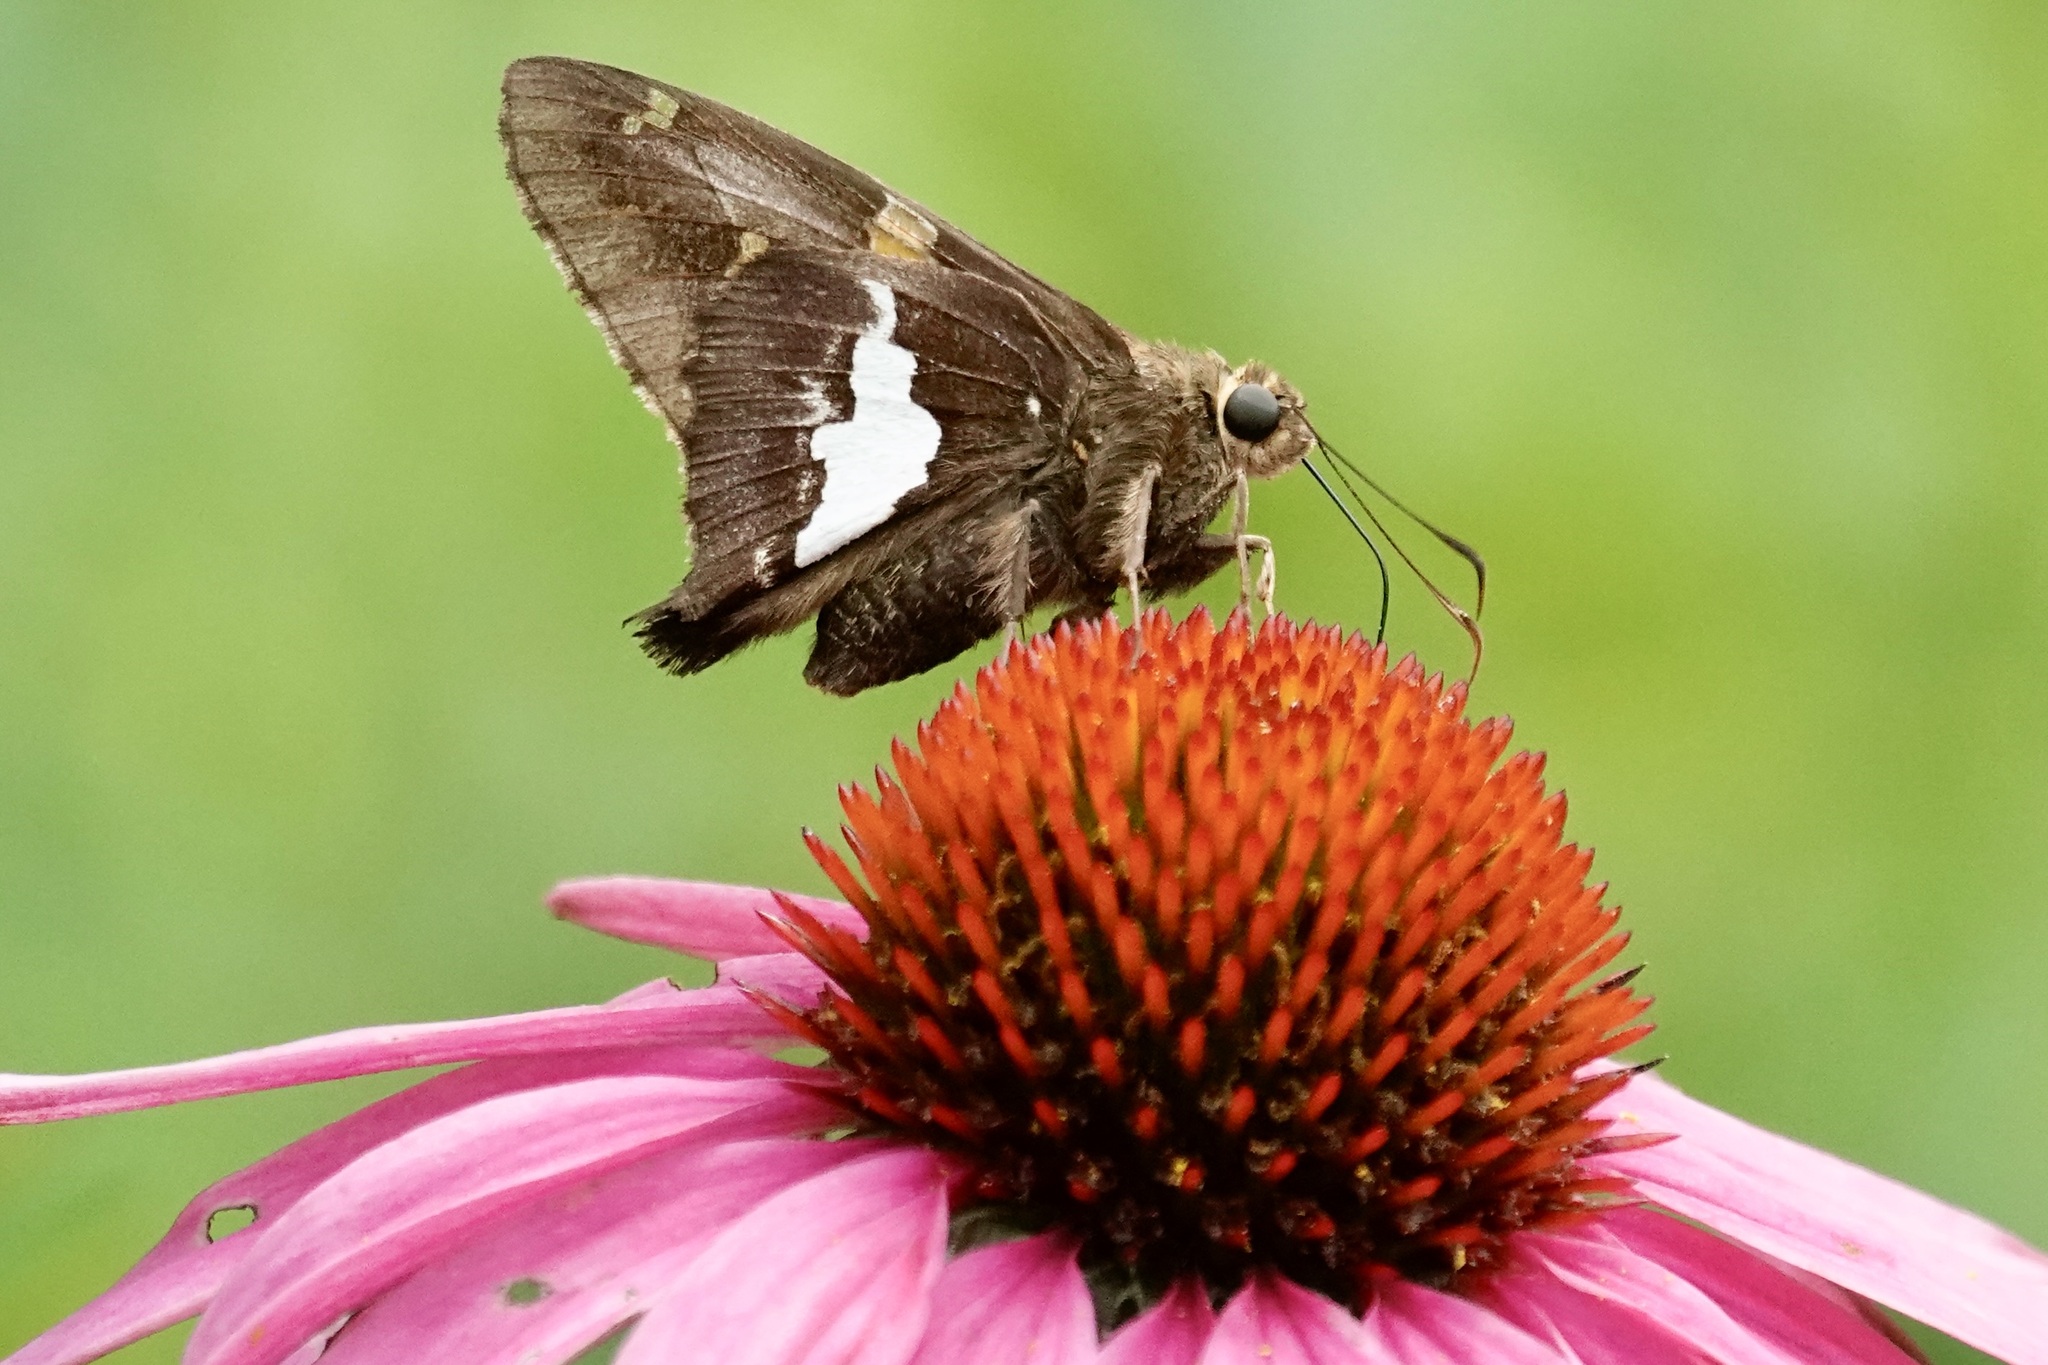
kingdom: Animalia
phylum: Arthropoda
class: Insecta
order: Lepidoptera
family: Hesperiidae
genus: Epargyreus
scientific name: Epargyreus clarus
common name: Silver-spotted skipper
